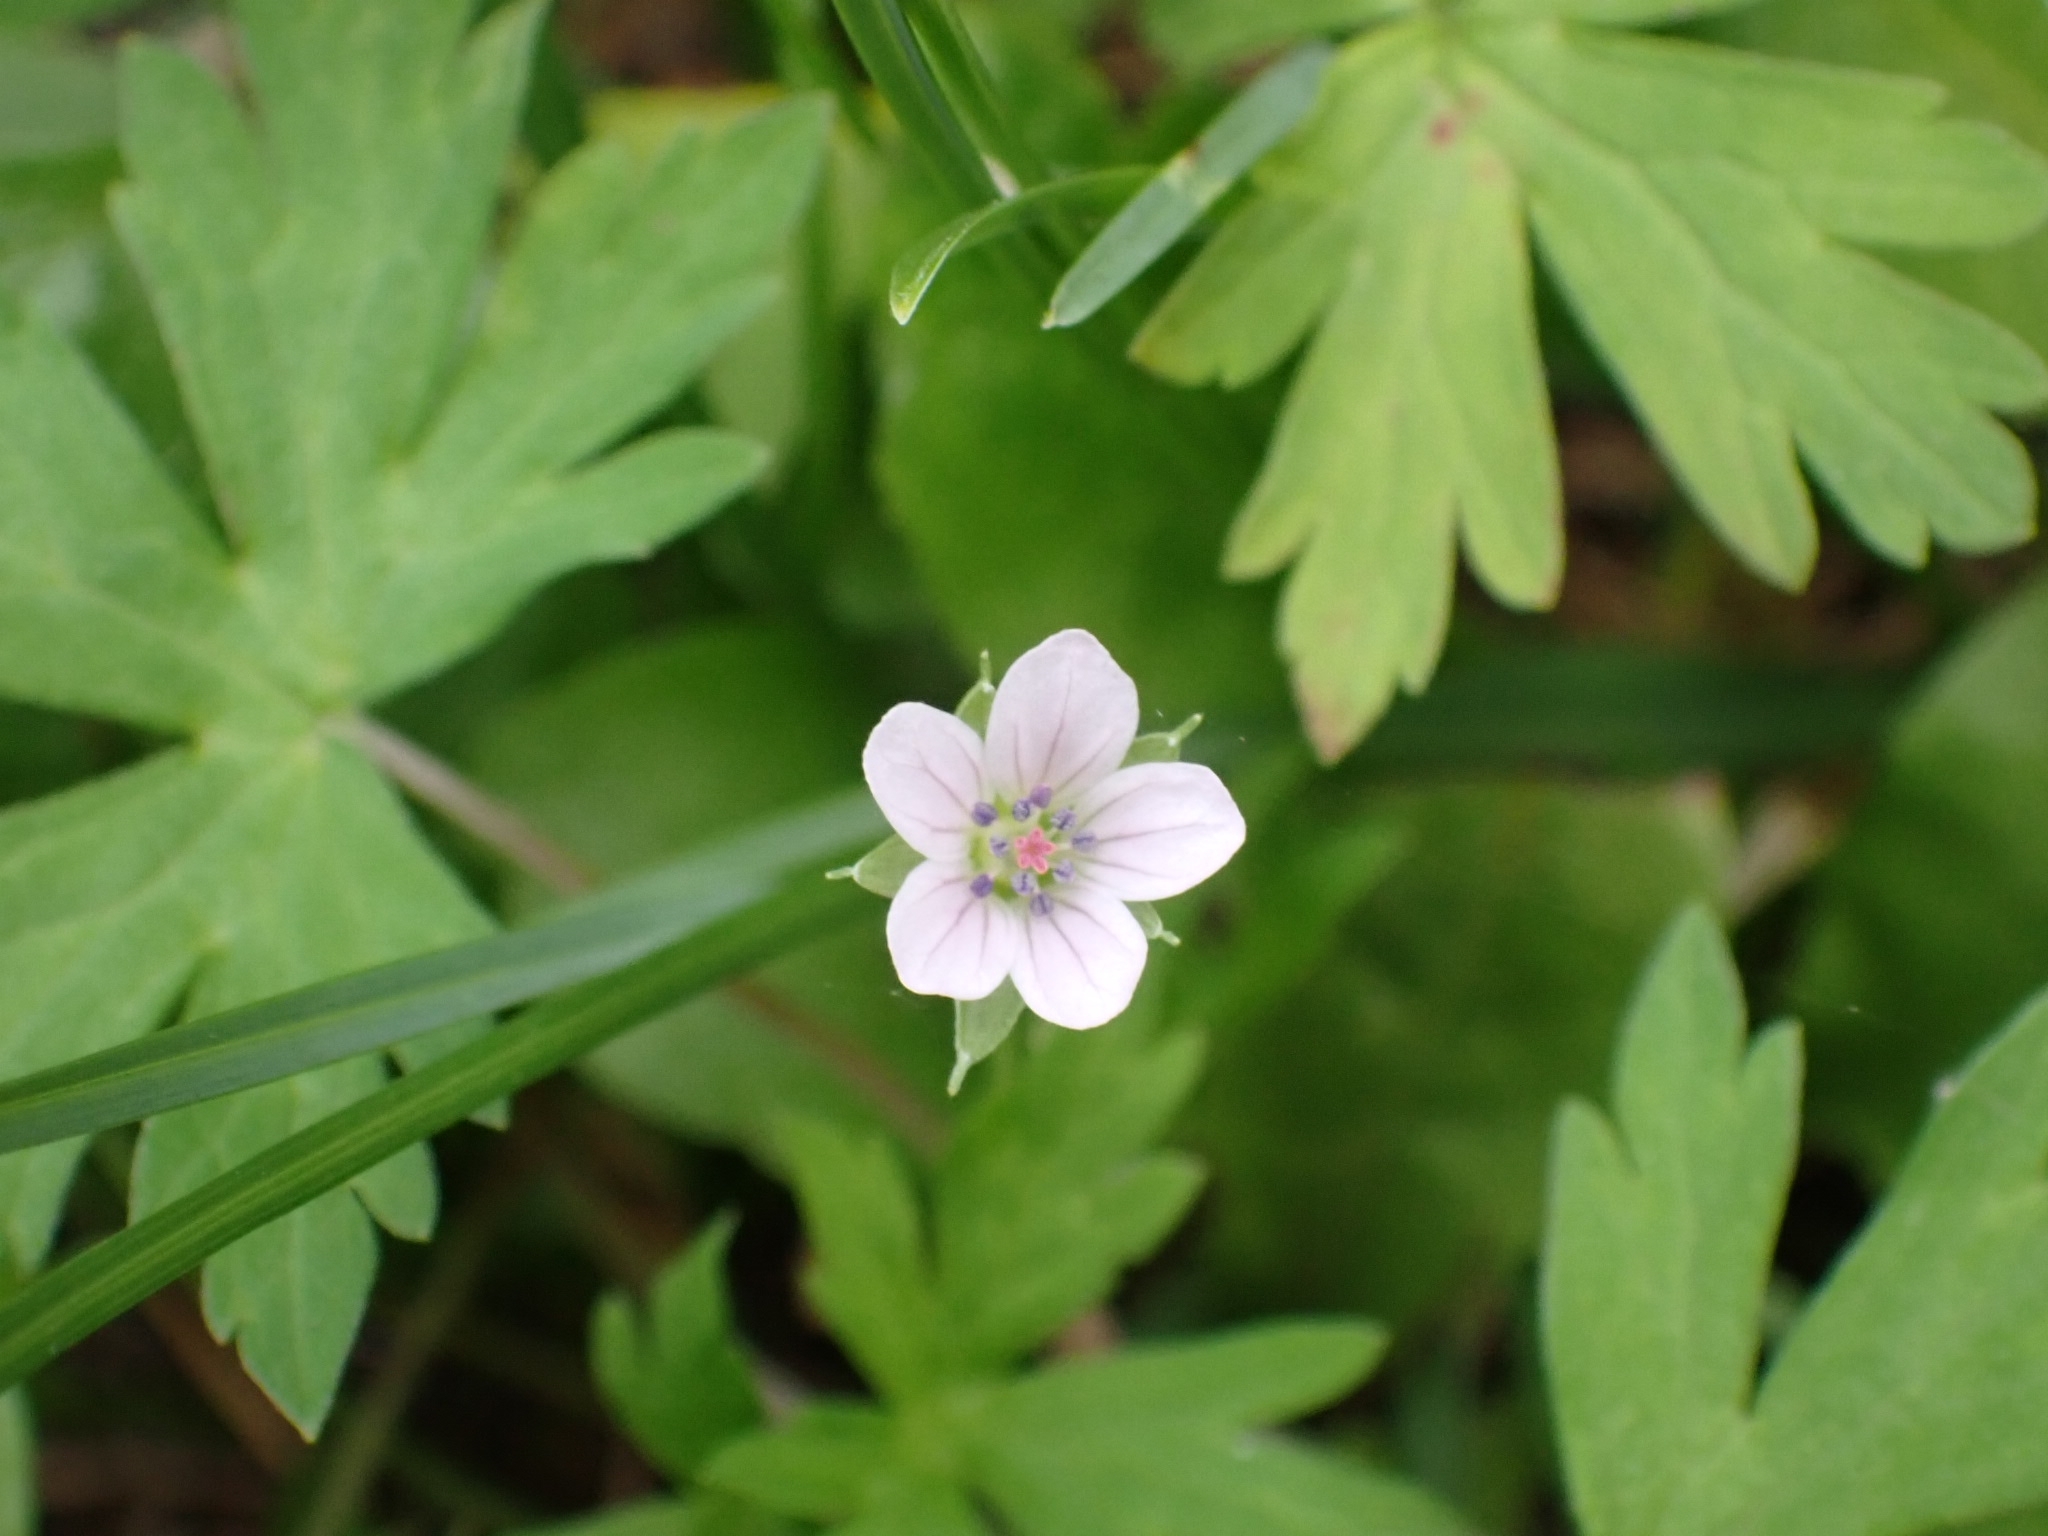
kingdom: Plantae
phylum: Tracheophyta
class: Magnoliopsida
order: Geraniales
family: Geraniaceae
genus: Geranium
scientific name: Geranium sibiricum
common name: Siberian crane's-bill
